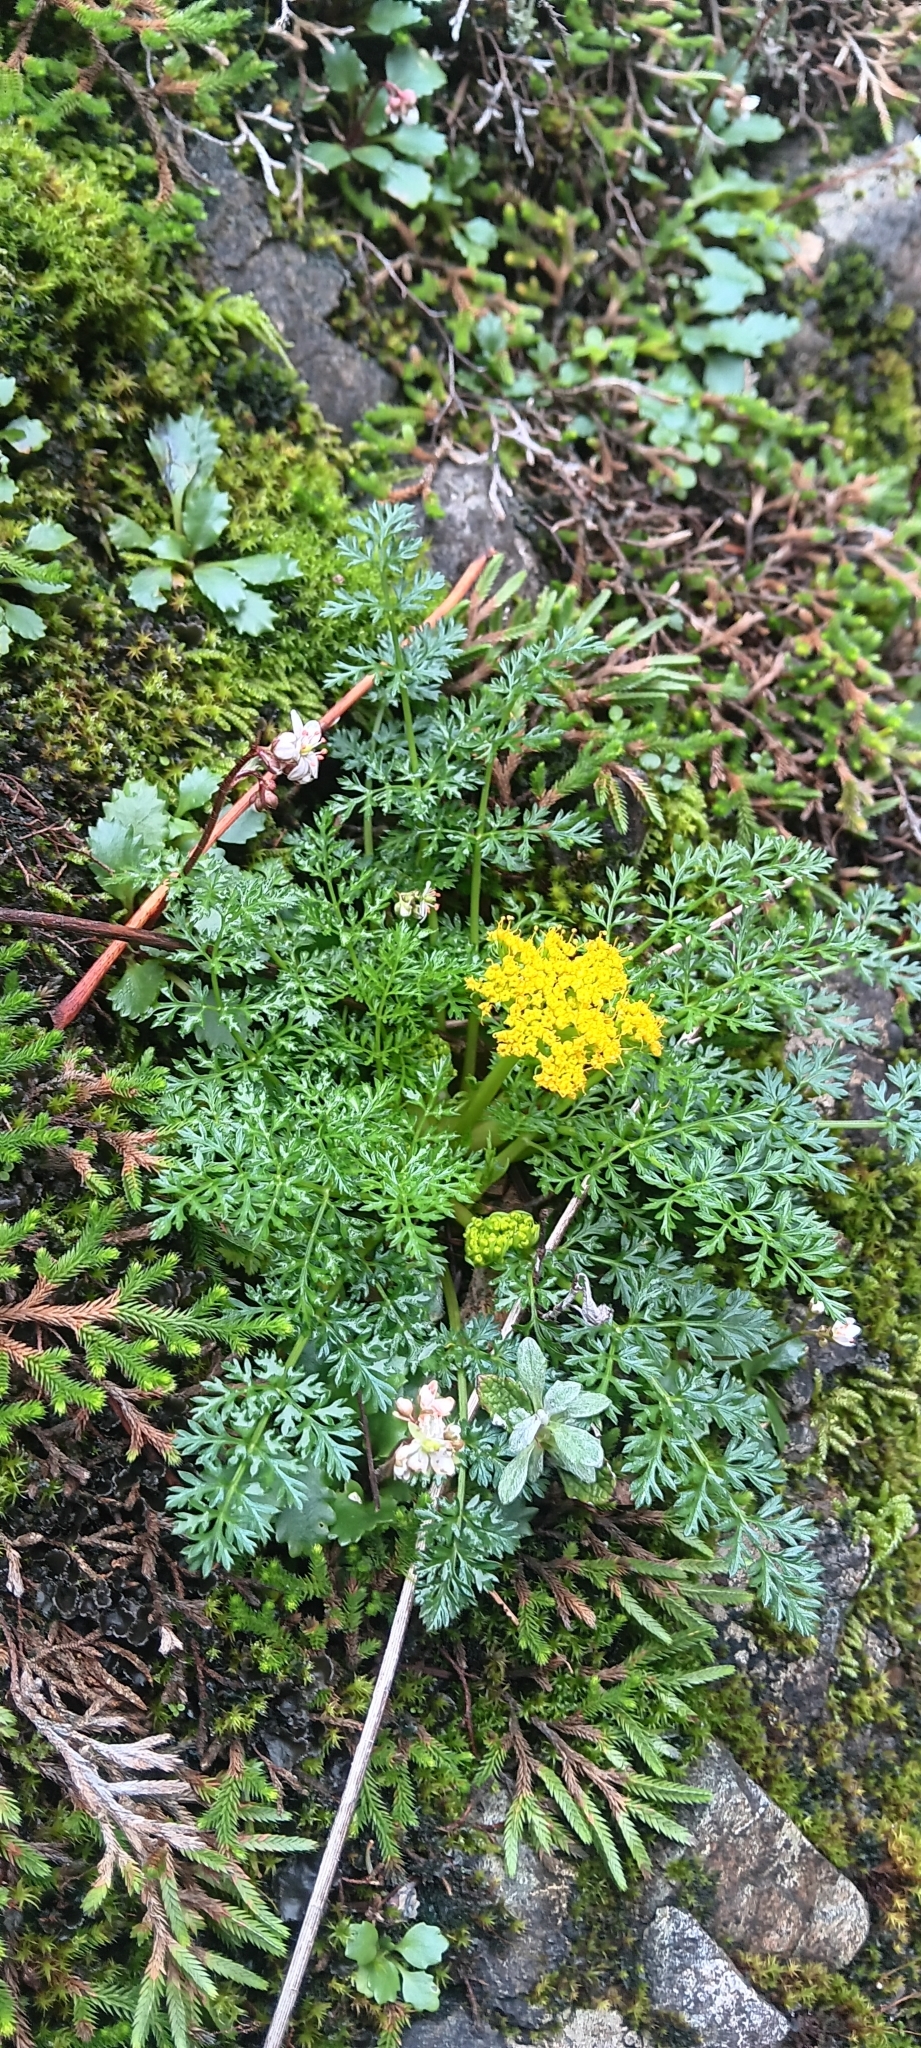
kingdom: Plantae
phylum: Tracheophyta
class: Magnoliopsida
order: Apiales
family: Apiaceae
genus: Lomatium
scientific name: Lomatium hallii
